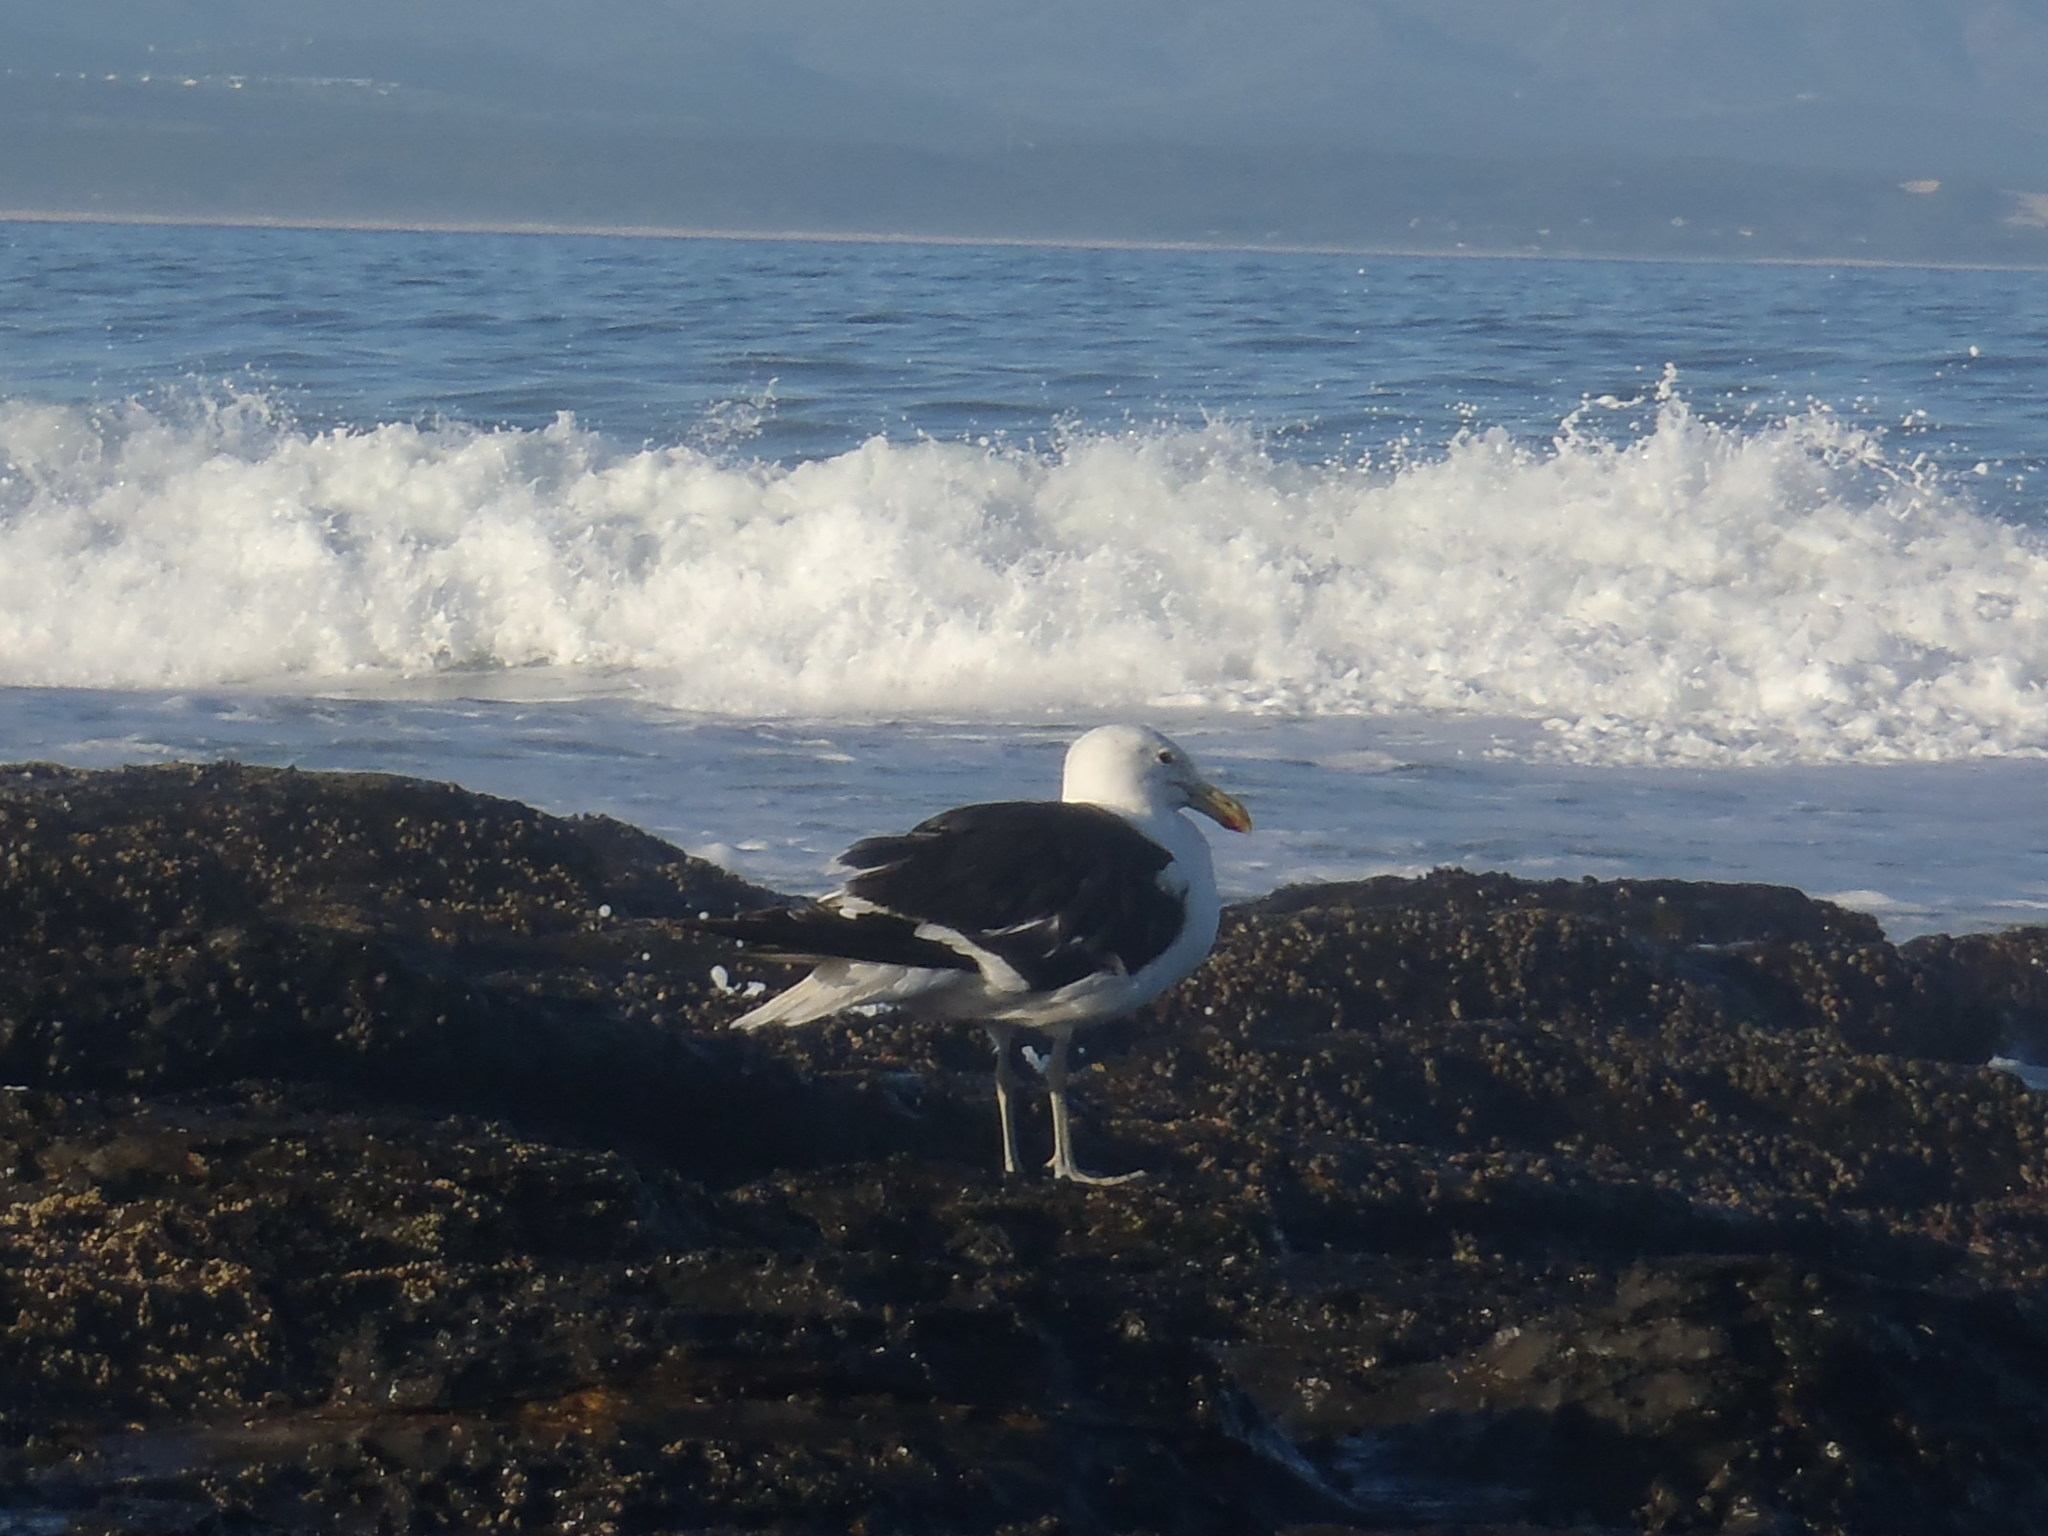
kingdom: Animalia
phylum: Chordata
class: Aves
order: Charadriiformes
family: Laridae
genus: Larus
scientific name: Larus dominicanus
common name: Kelp gull
